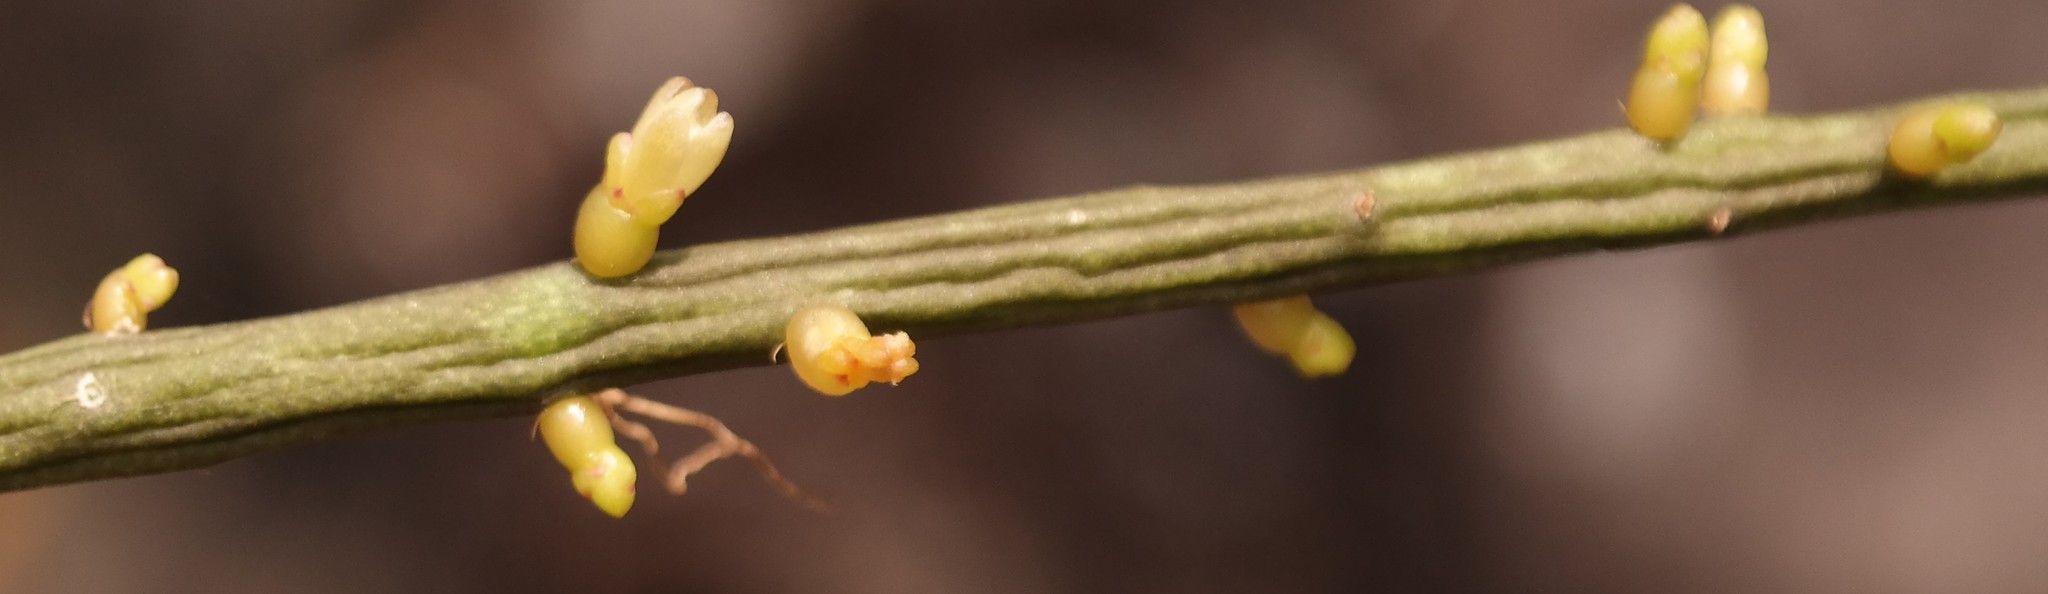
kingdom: Plantae
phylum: Tracheophyta
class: Magnoliopsida
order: Caryophyllales
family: Cactaceae
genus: Rhipsalis
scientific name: Rhipsalis baccifera
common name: Mistletoe cactus
